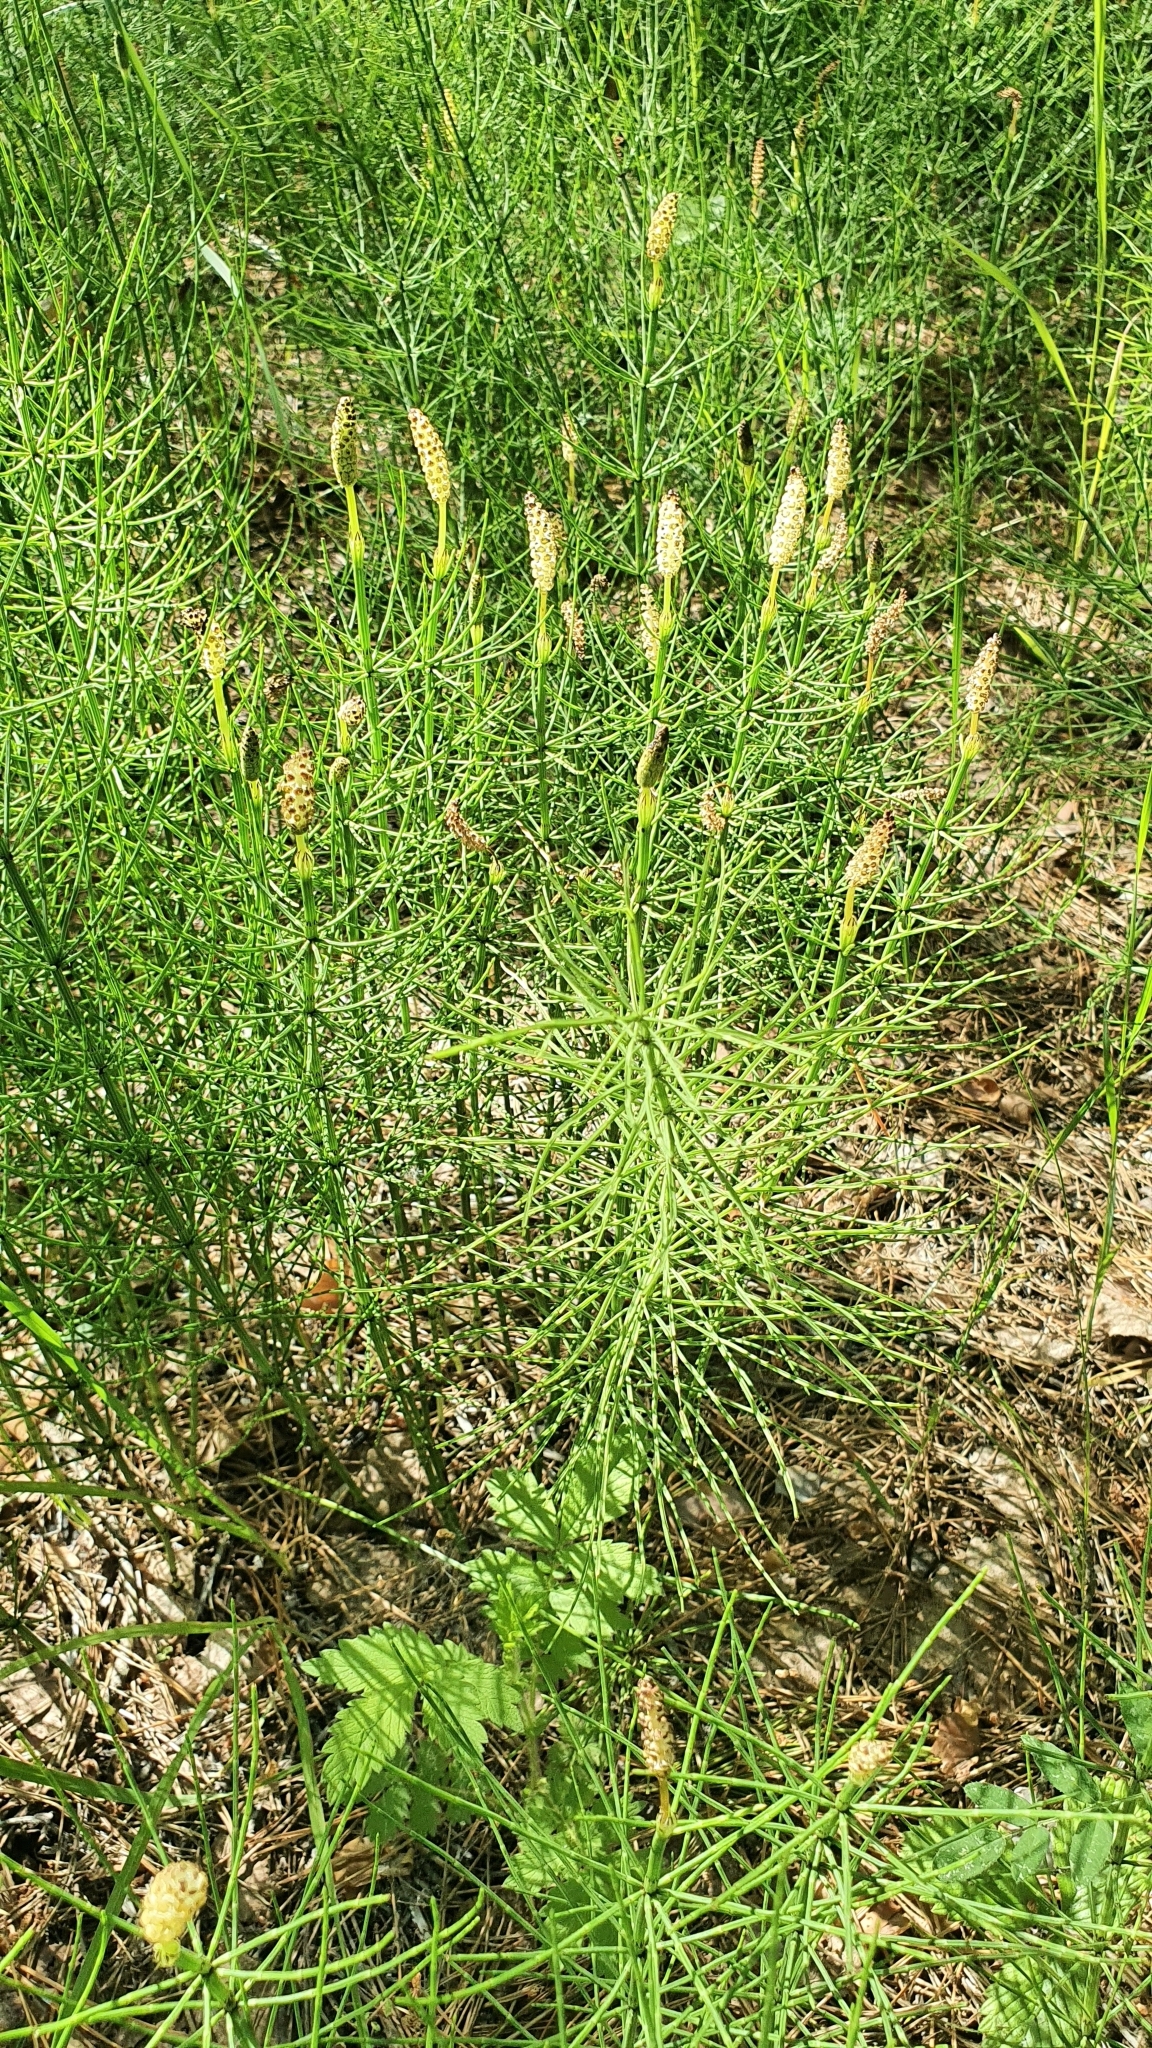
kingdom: Plantae
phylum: Tracheophyta
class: Polypodiopsida
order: Equisetales
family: Equisetaceae
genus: Equisetum
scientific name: Equisetum palustre
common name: Marsh horsetail
